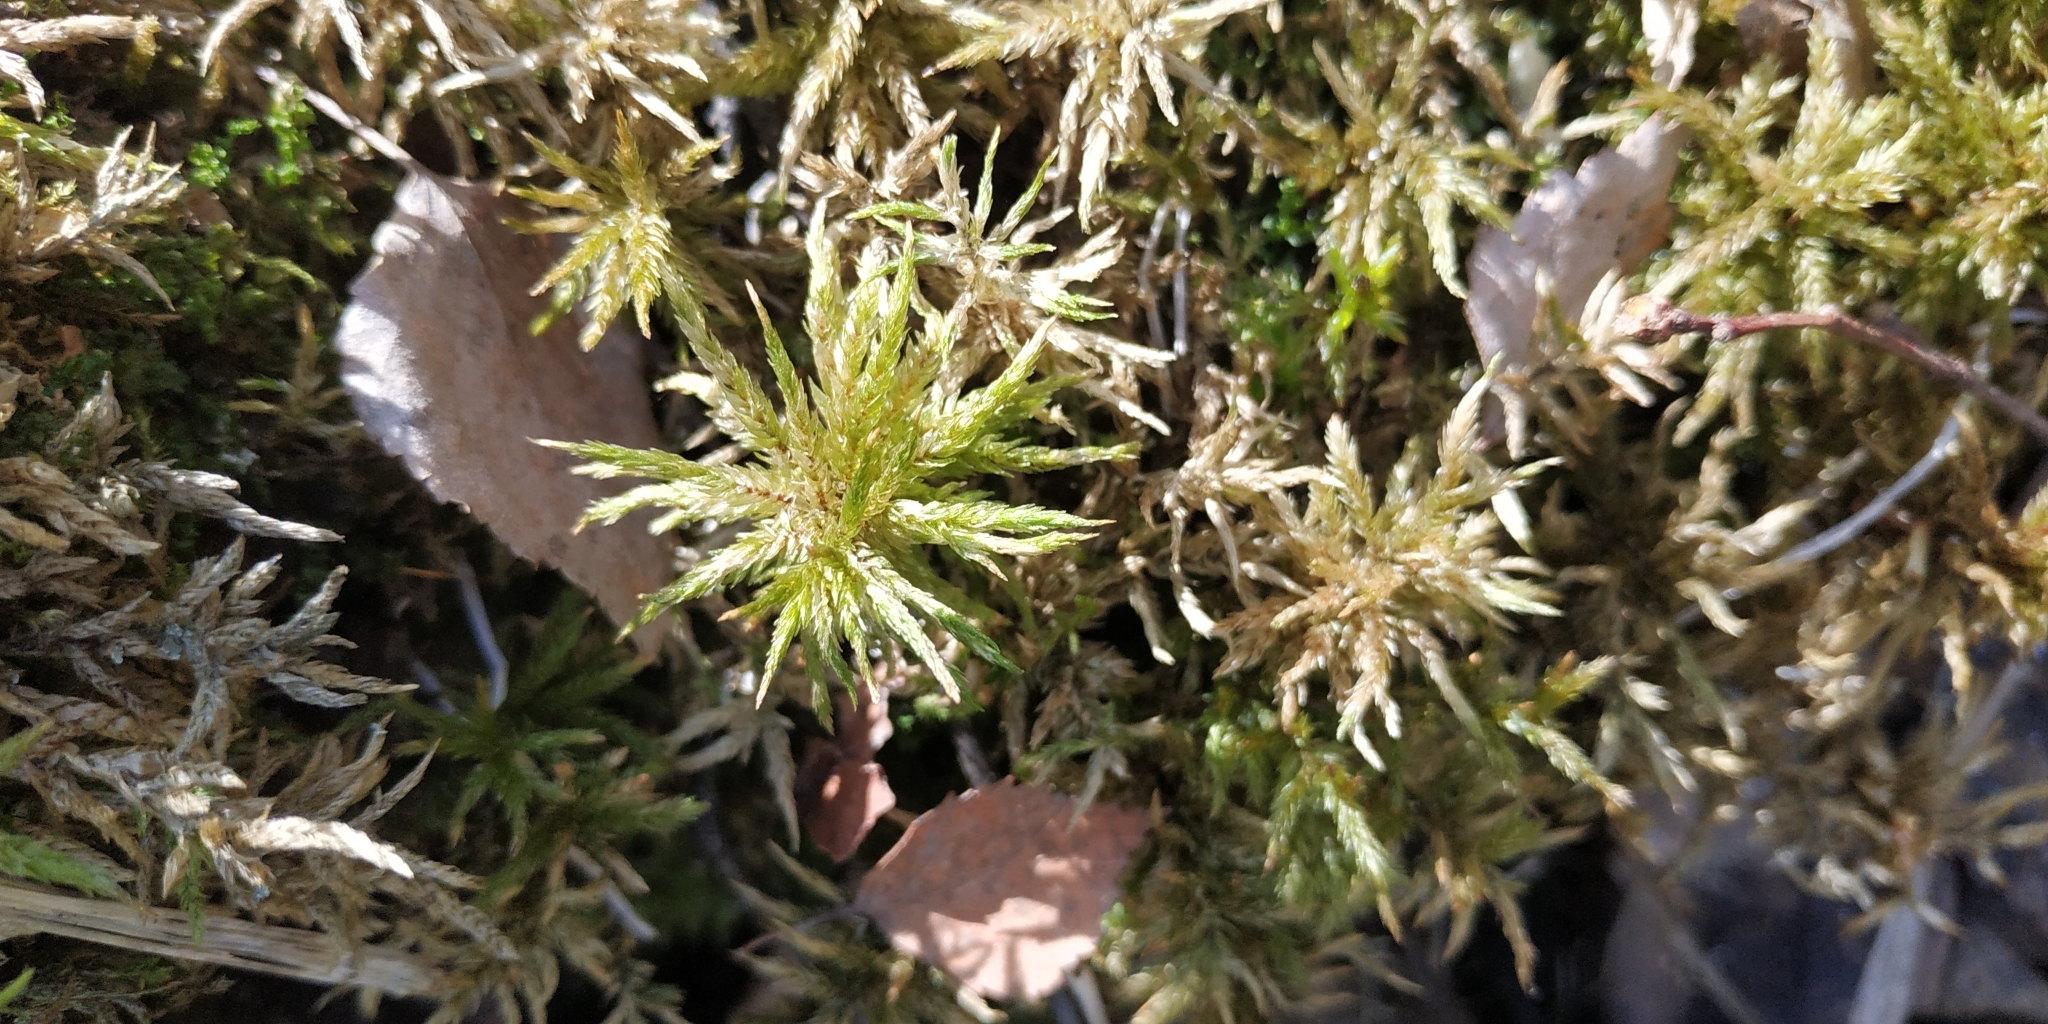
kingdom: Plantae
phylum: Bryophyta
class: Bryopsida
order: Hypnales
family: Climaciaceae
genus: Climacium
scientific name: Climacium dendroides
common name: Northern tree moss
